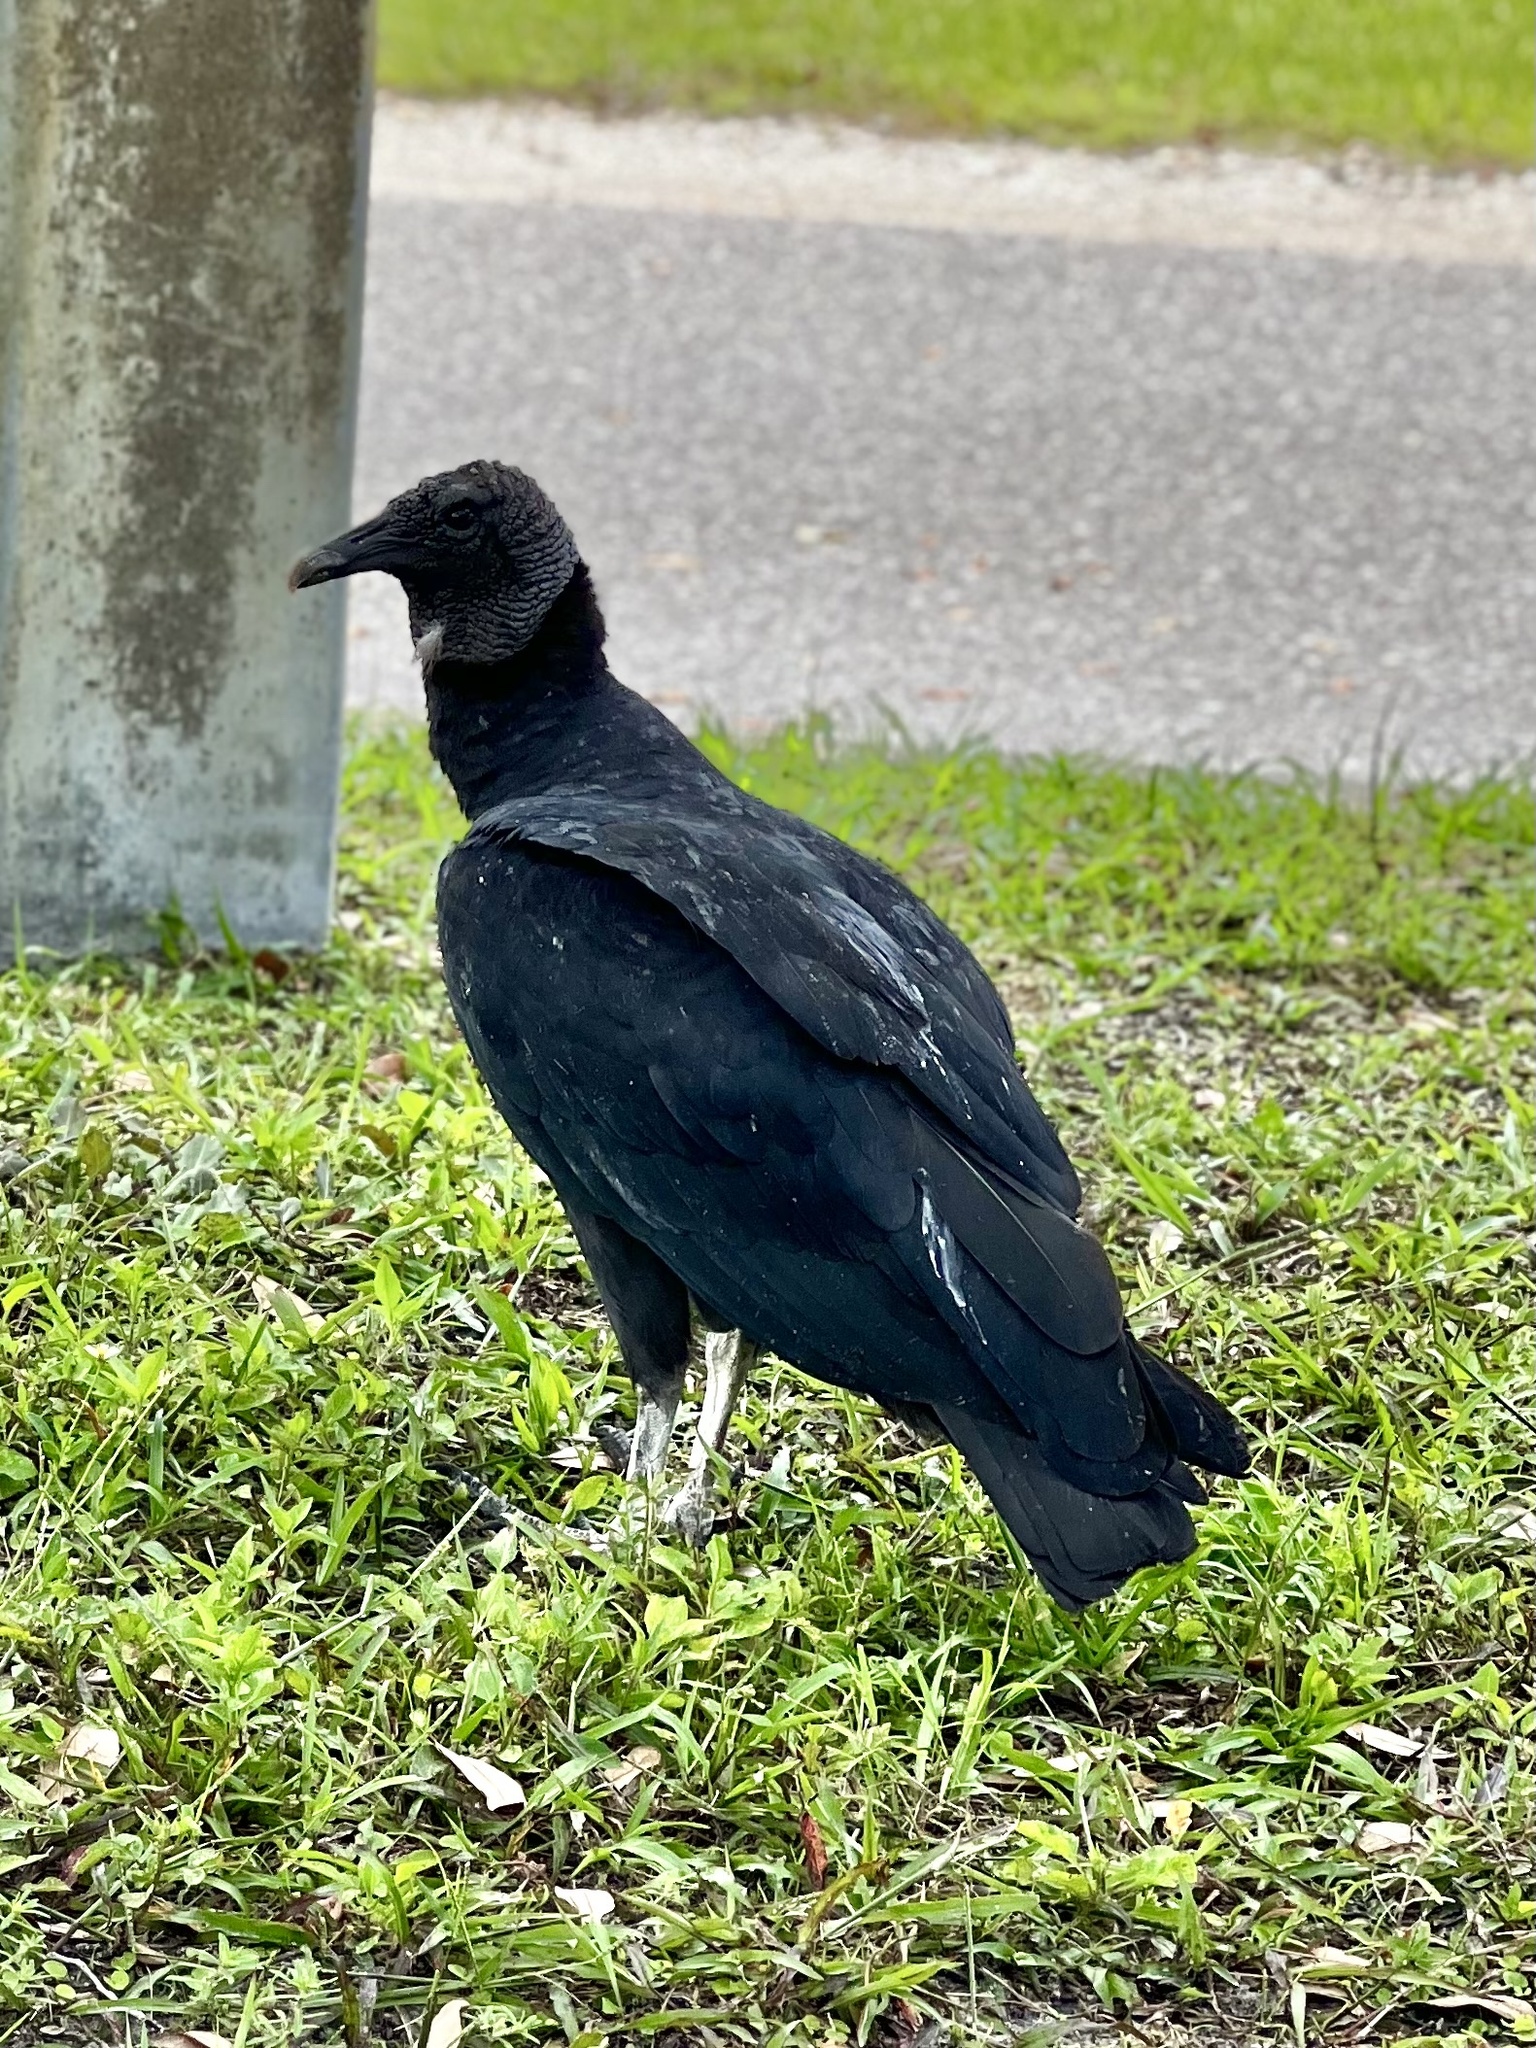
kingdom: Animalia
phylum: Chordata
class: Aves
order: Accipitriformes
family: Cathartidae
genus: Coragyps
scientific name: Coragyps atratus
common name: Black vulture
